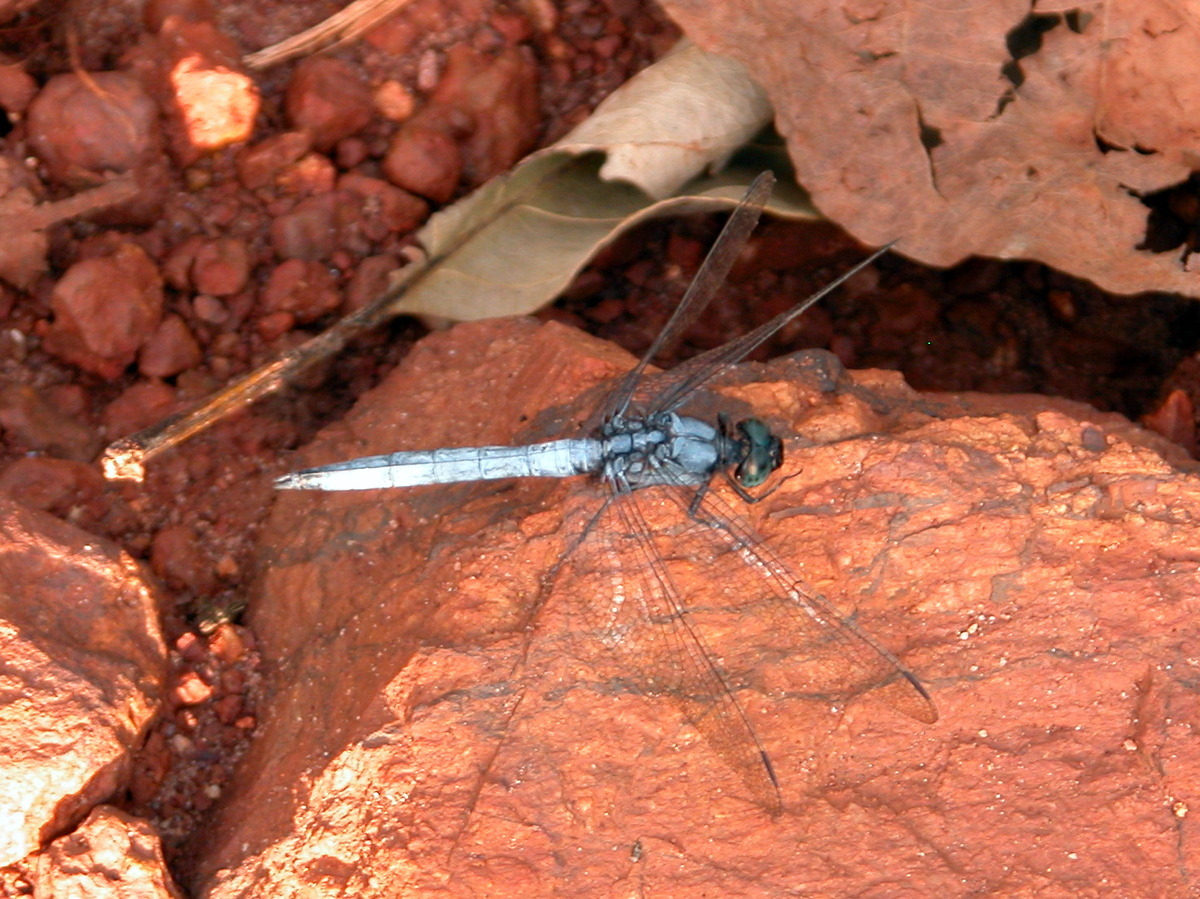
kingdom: Animalia
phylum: Arthropoda
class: Insecta
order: Odonata
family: Libellulidae
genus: Orthetrum
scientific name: Orthetrum glaucum
